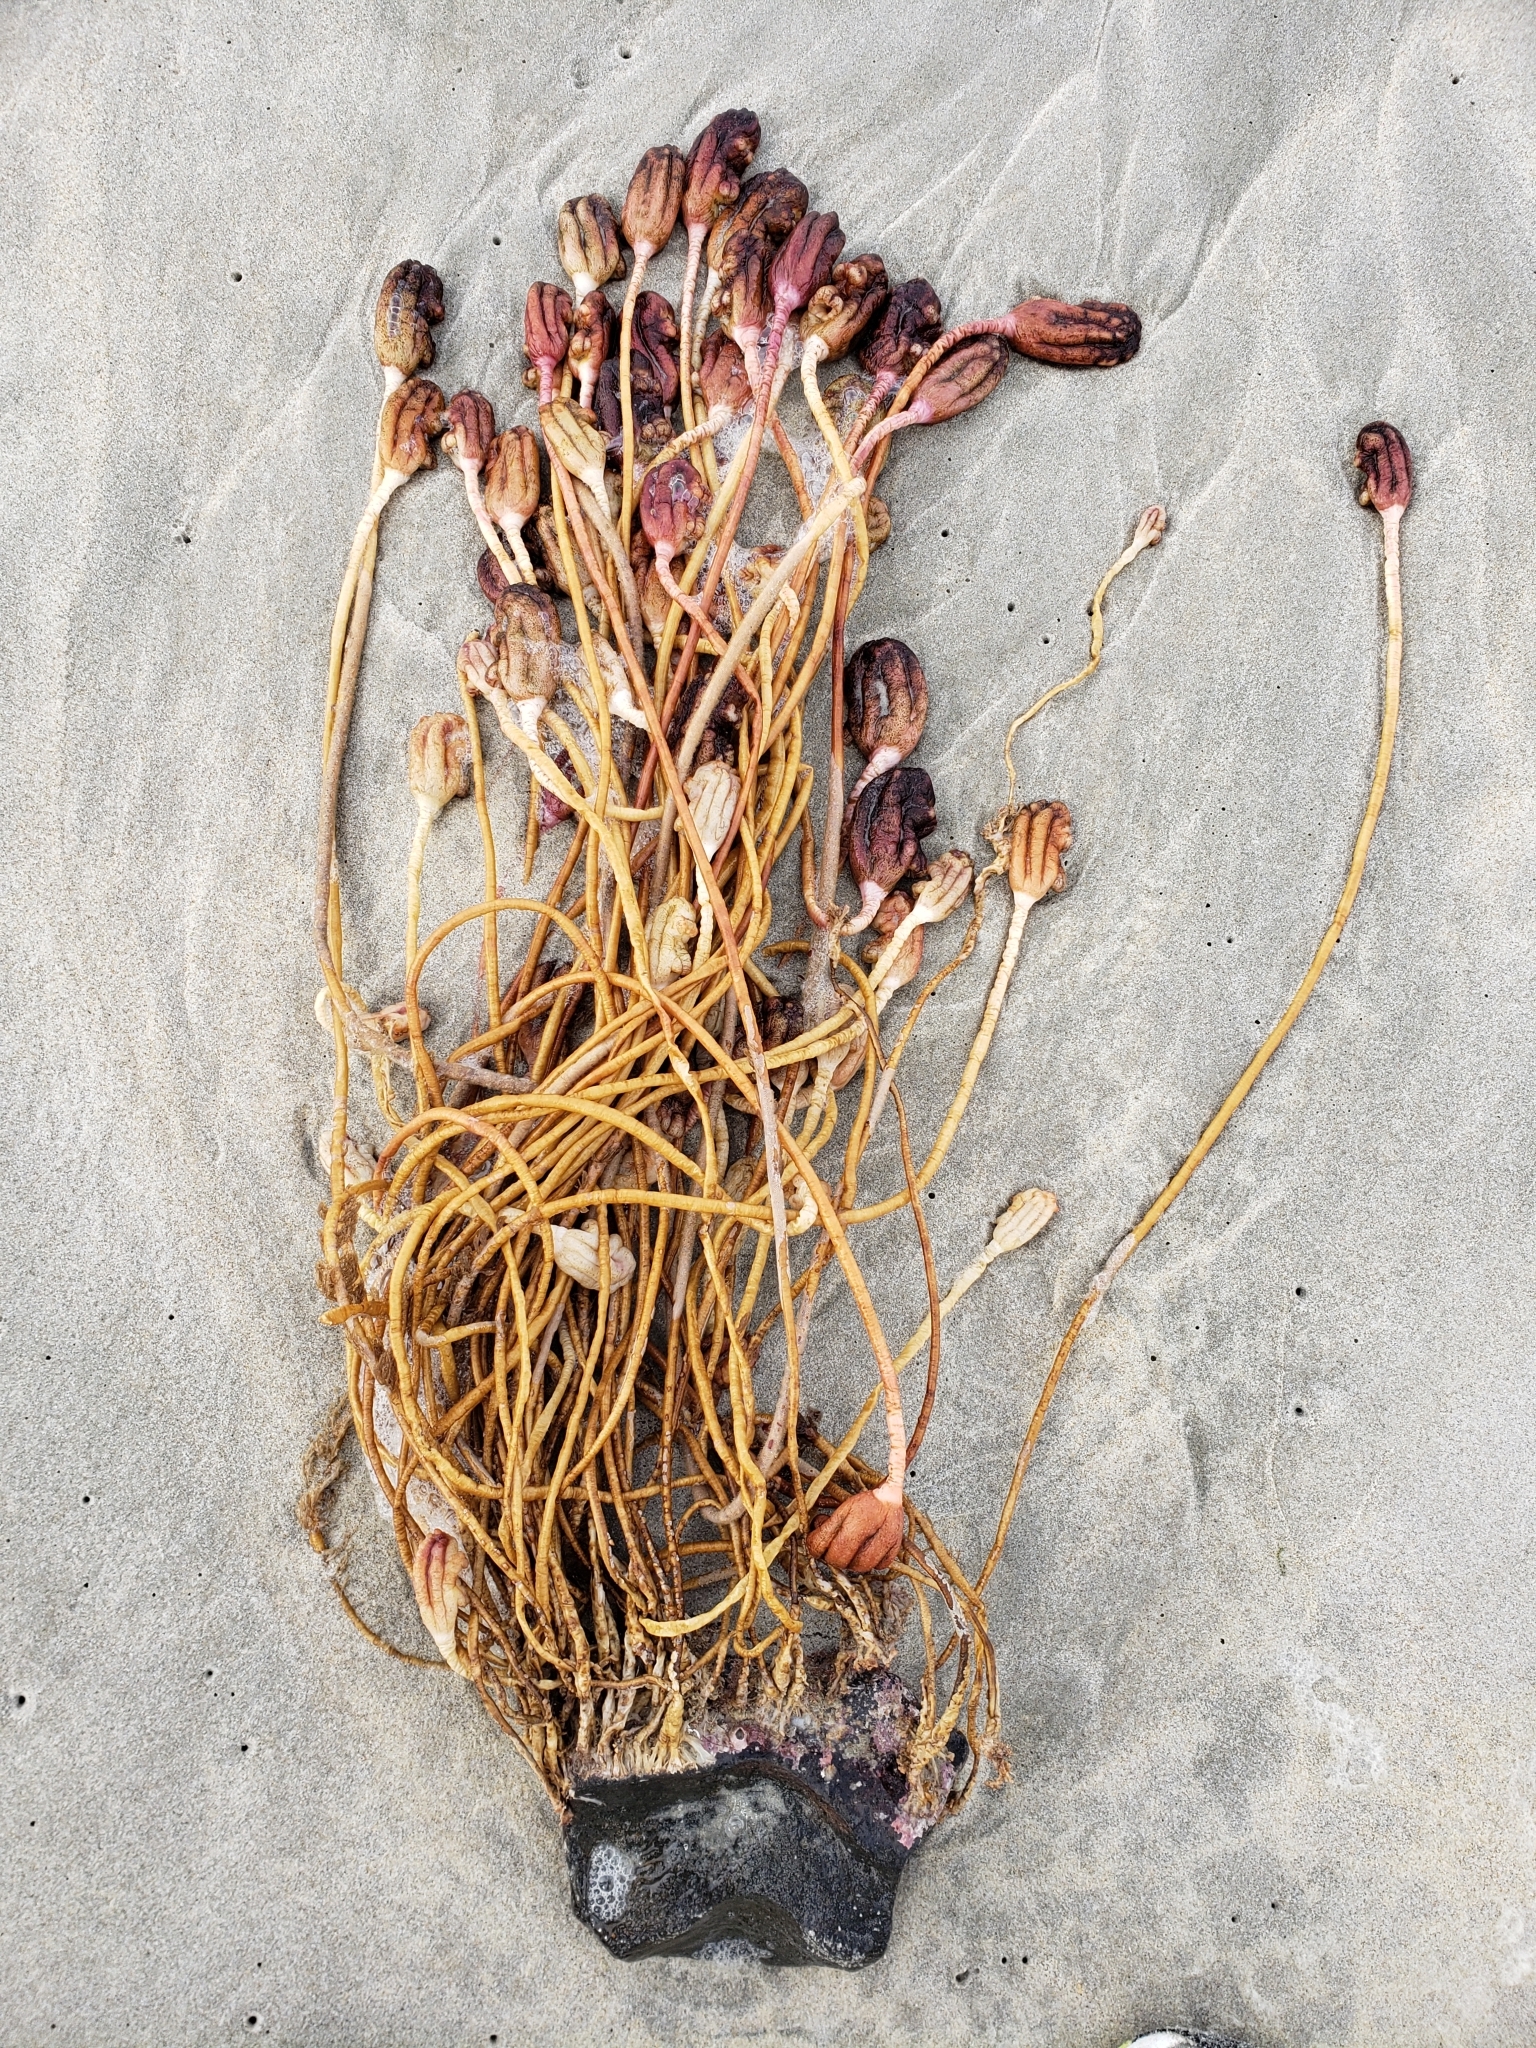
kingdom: Animalia
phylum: Chordata
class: Ascidiacea
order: Stolidobranchia
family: Pyuridae
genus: Pyura
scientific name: Pyura pachydermatina
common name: Sea tulip
